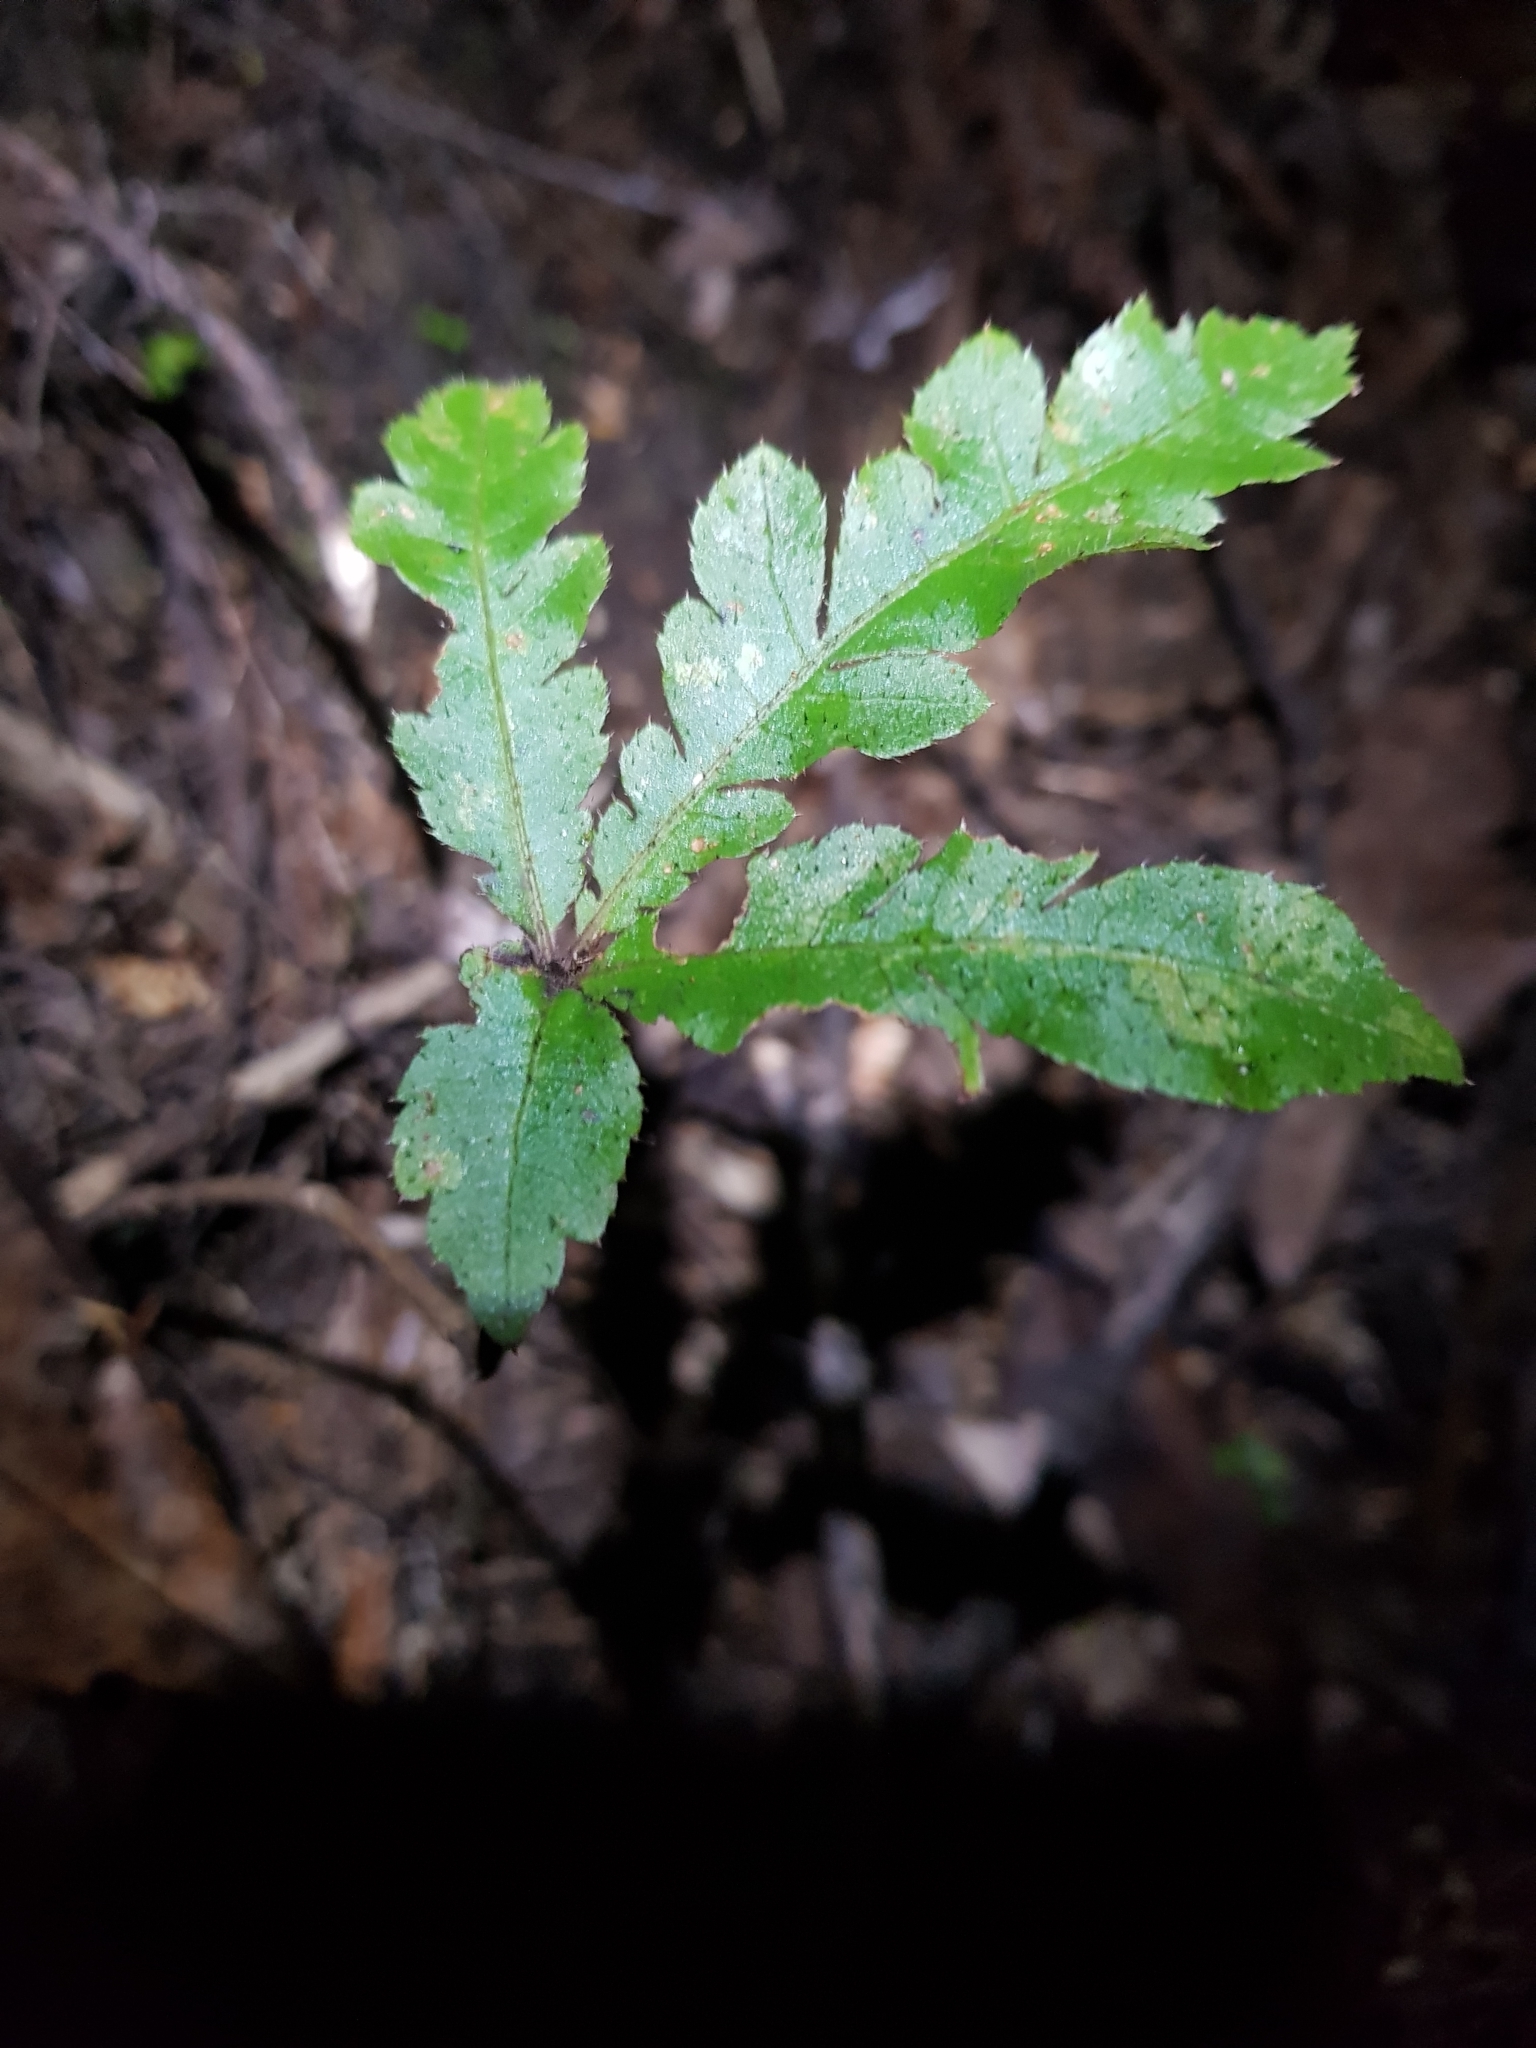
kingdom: Plantae
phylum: Tracheophyta
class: Magnoliopsida
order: Apiales
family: Araliaceae
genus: Schefflera
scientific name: Schefflera digitata
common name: Pate
